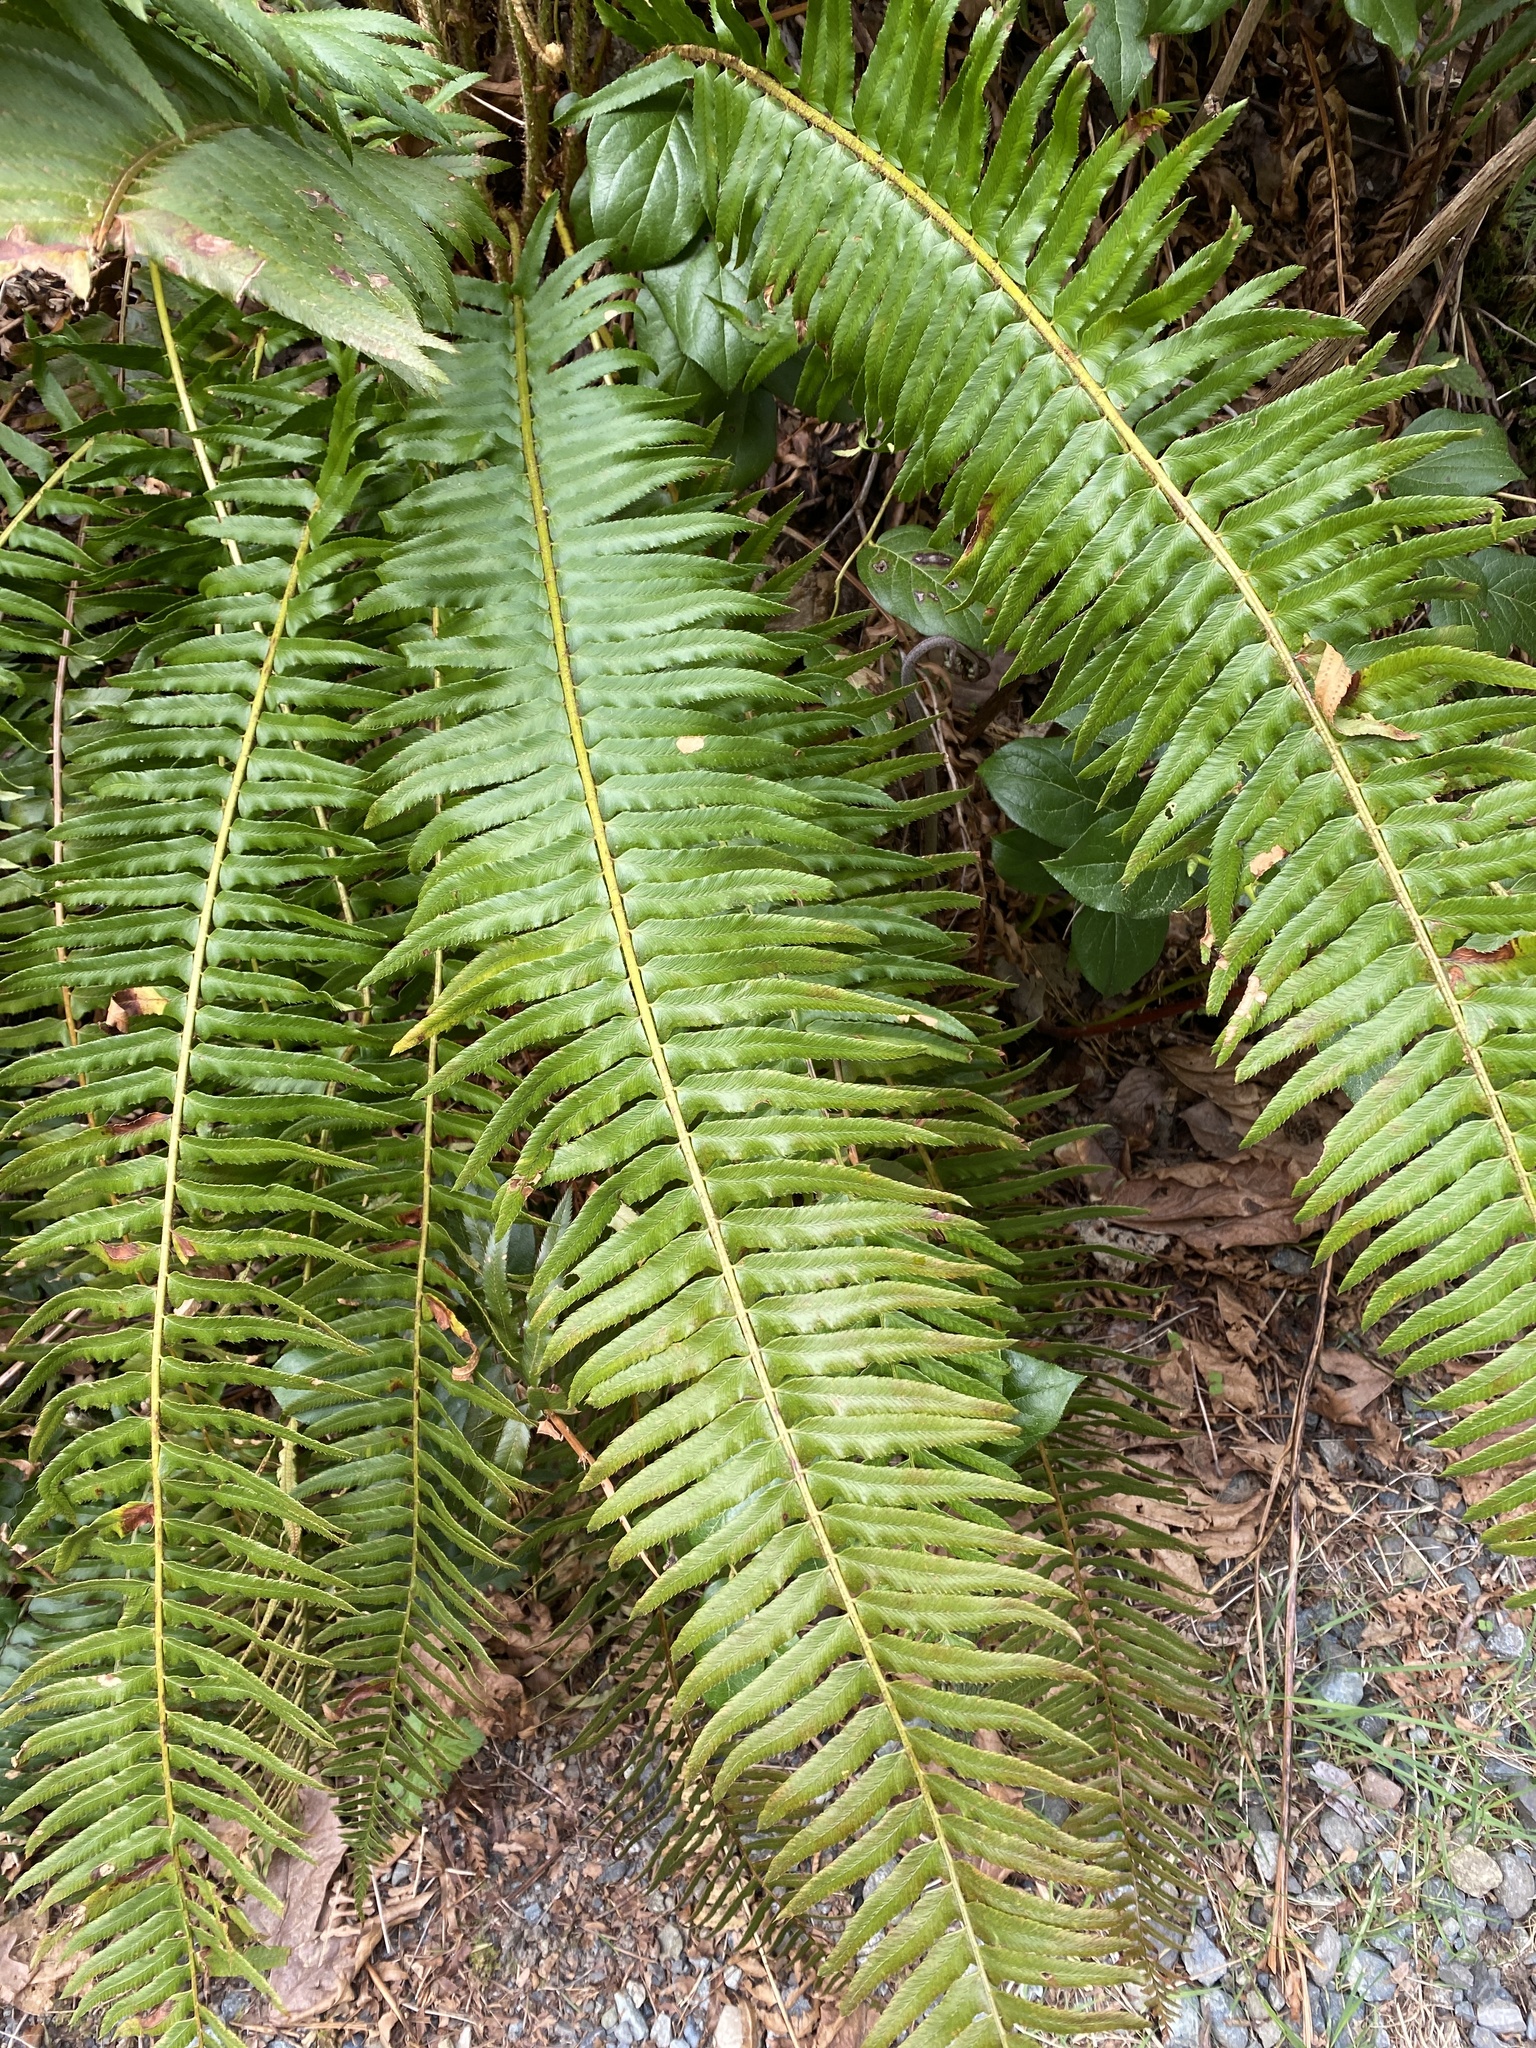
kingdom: Plantae
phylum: Tracheophyta
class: Polypodiopsida
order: Polypodiales
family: Dryopteridaceae
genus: Polystichum
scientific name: Polystichum munitum
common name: Western sword-fern
